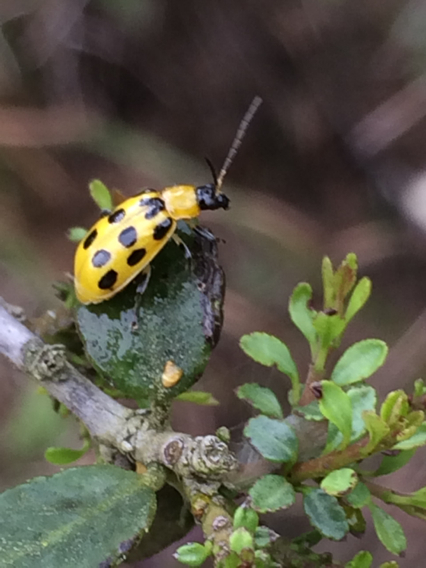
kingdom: Animalia
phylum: Arthropoda
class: Insecta
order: Coleoptera
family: Chrysomelidae
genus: Diabrotica
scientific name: Diabrotica undecimpunctata
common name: Spotted cucumber beetle
